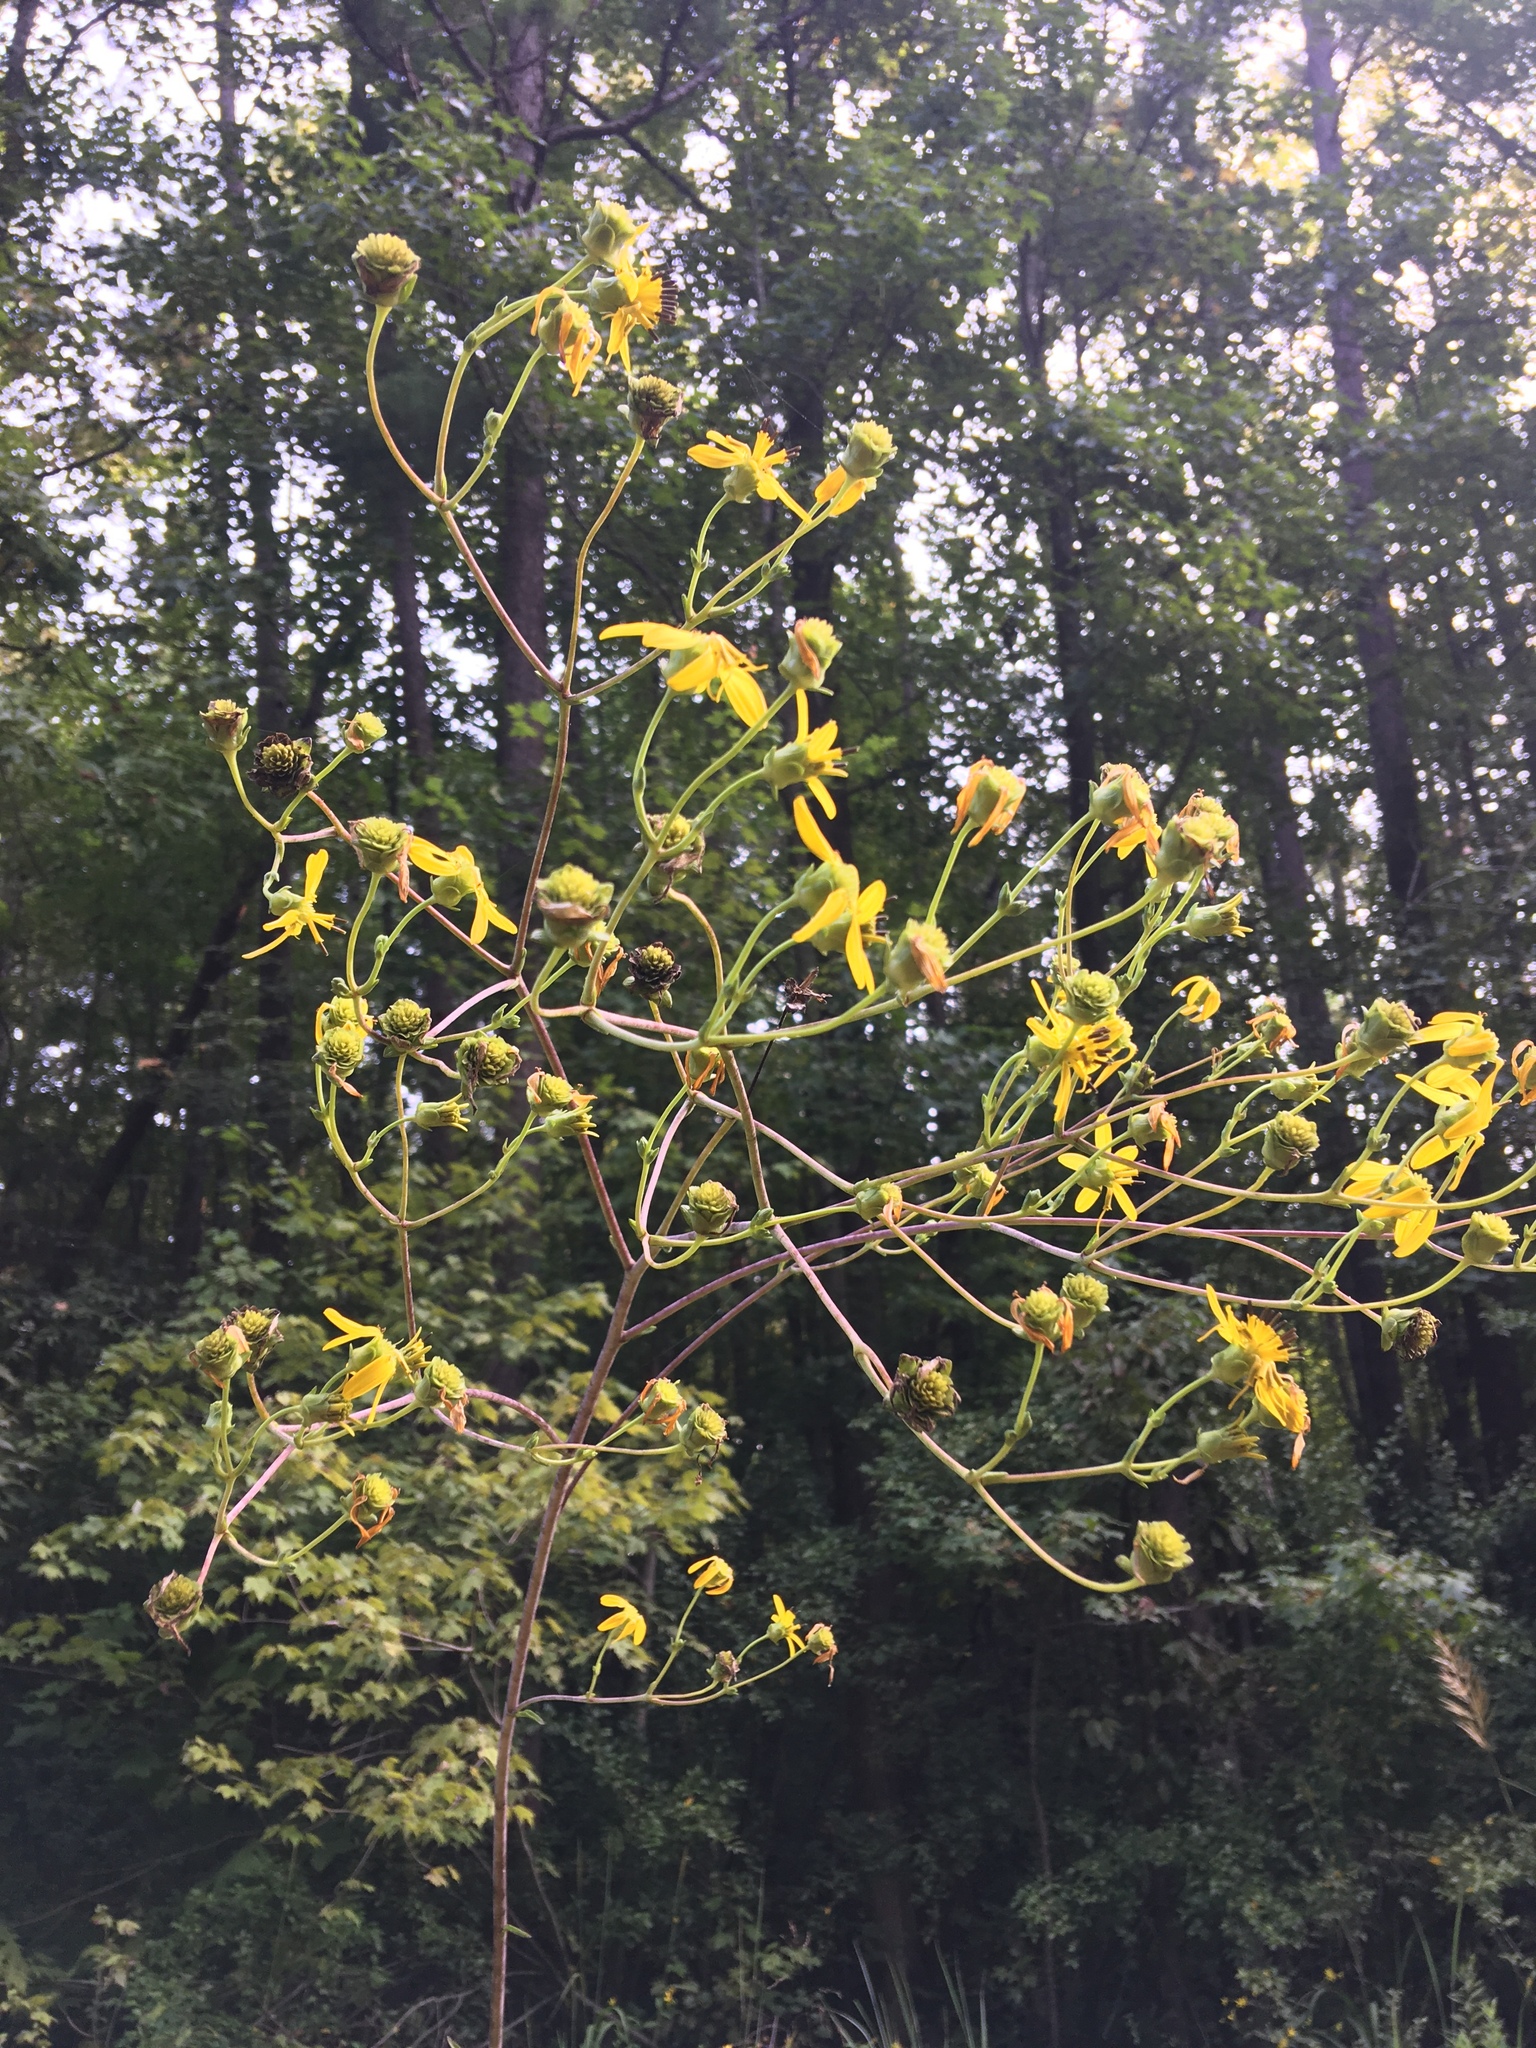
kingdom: Plantae
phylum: Tracheophyta
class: Magnoliopsida
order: Asterales
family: Asteraceae
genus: Silphium
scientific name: Silphium compositum
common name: Lesser basal-leaf rosinweed
